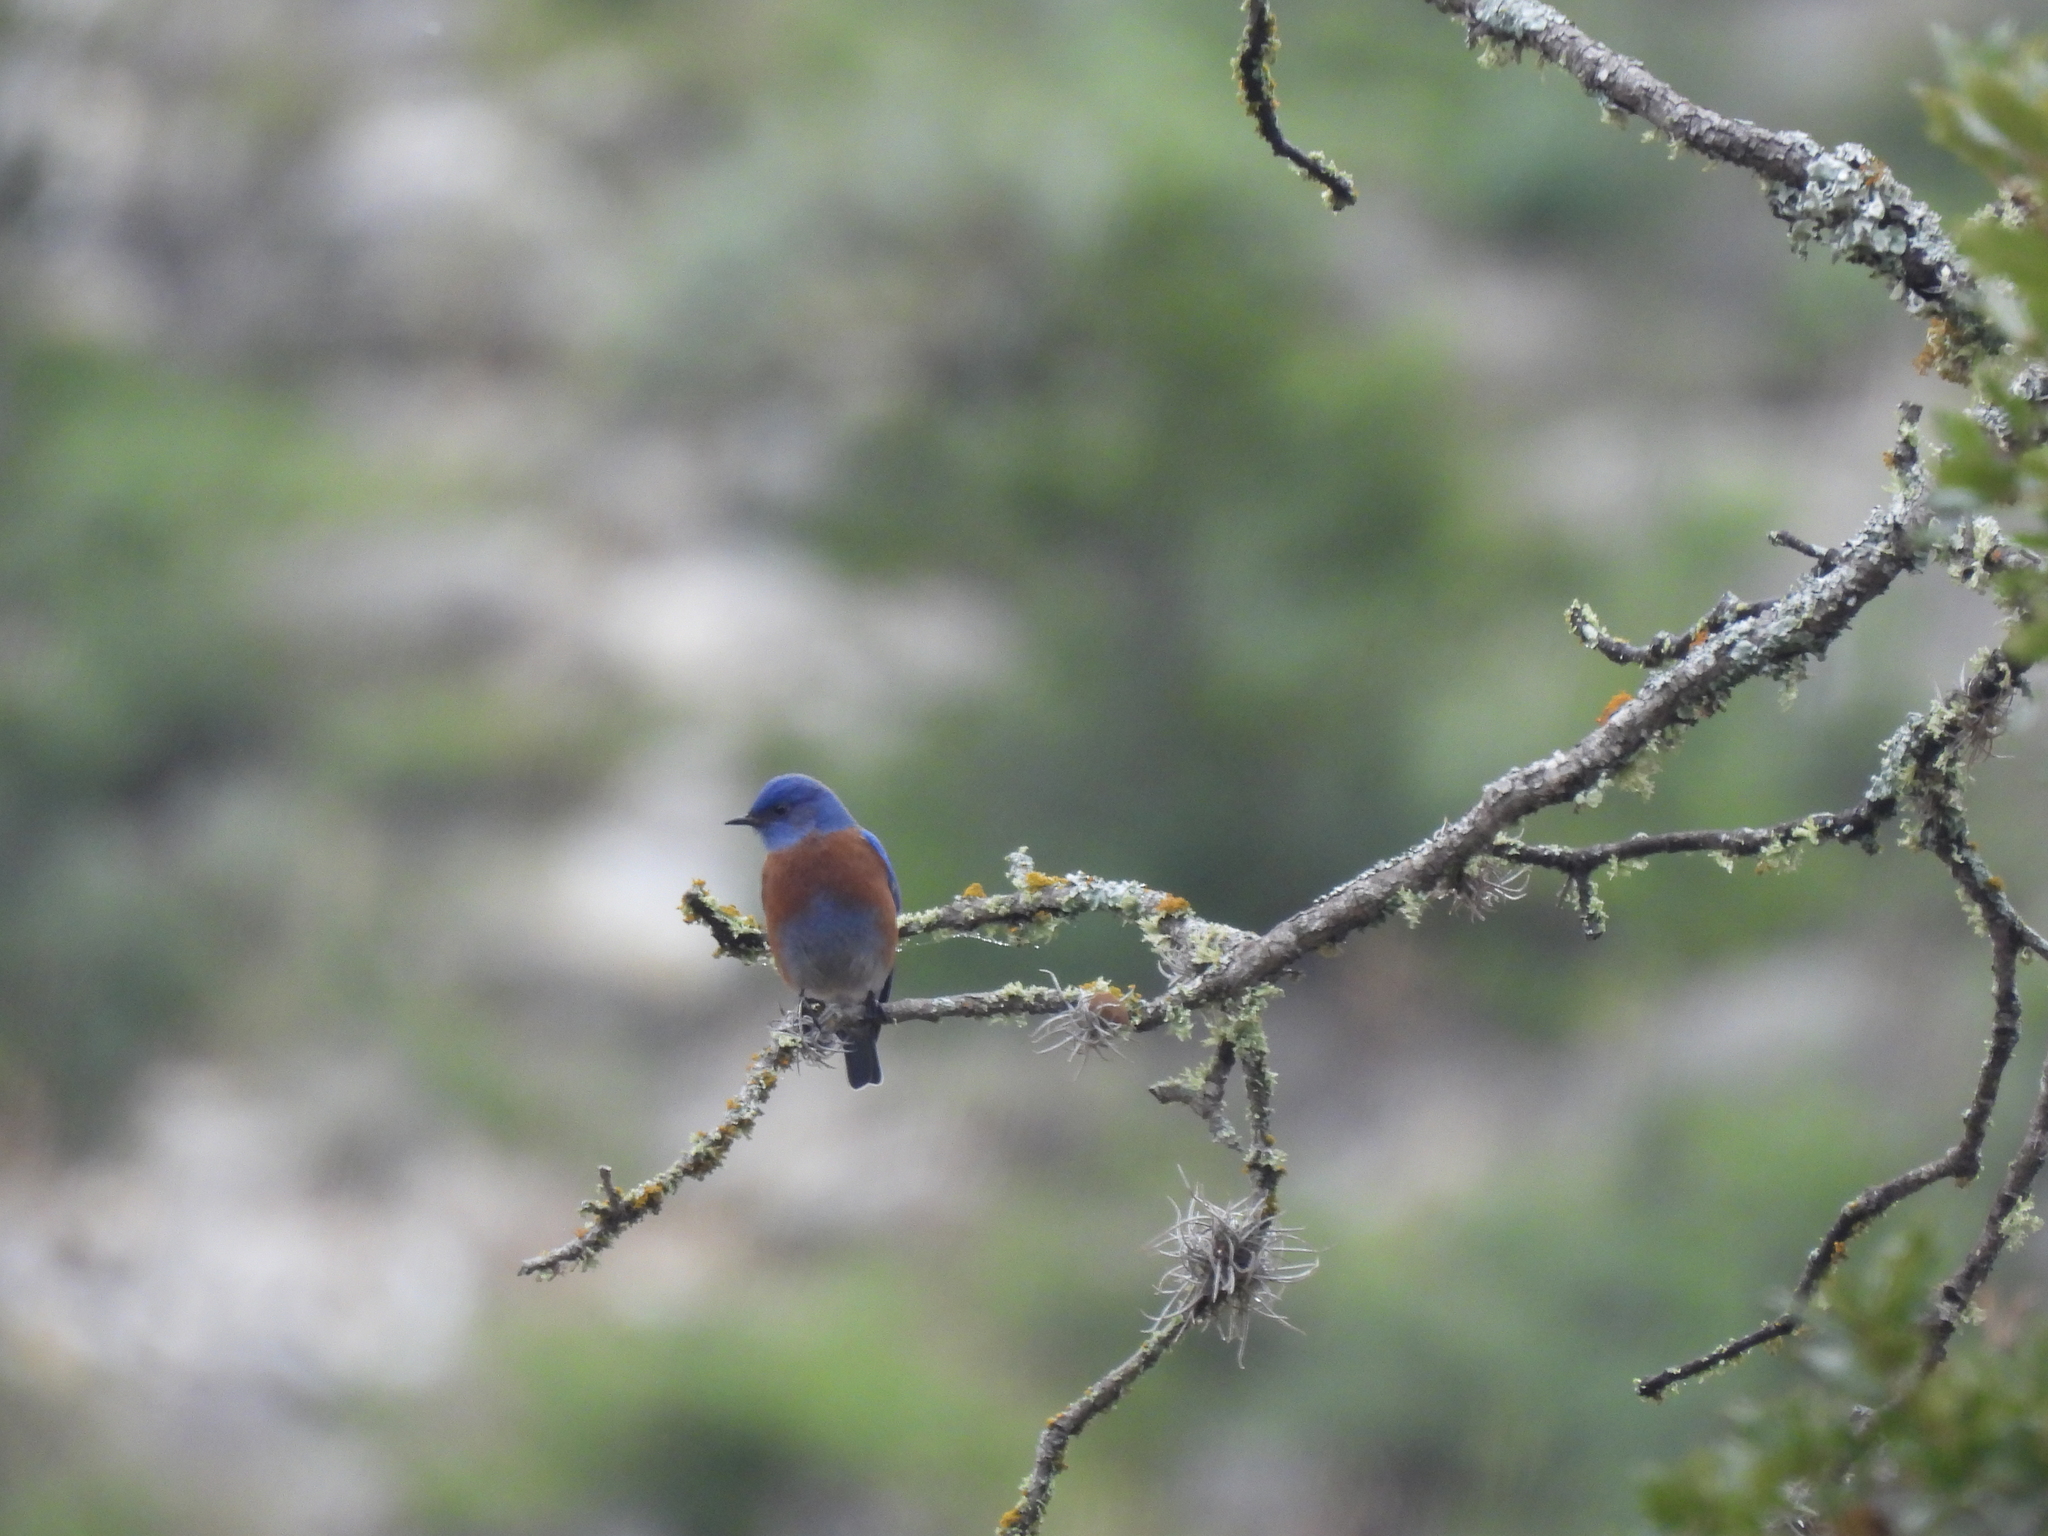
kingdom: Animalia
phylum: Chordata
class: Aves
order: Passeriformes
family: Turdidae
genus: Sialia
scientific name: Sialia mexicana
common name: Western bluebird
